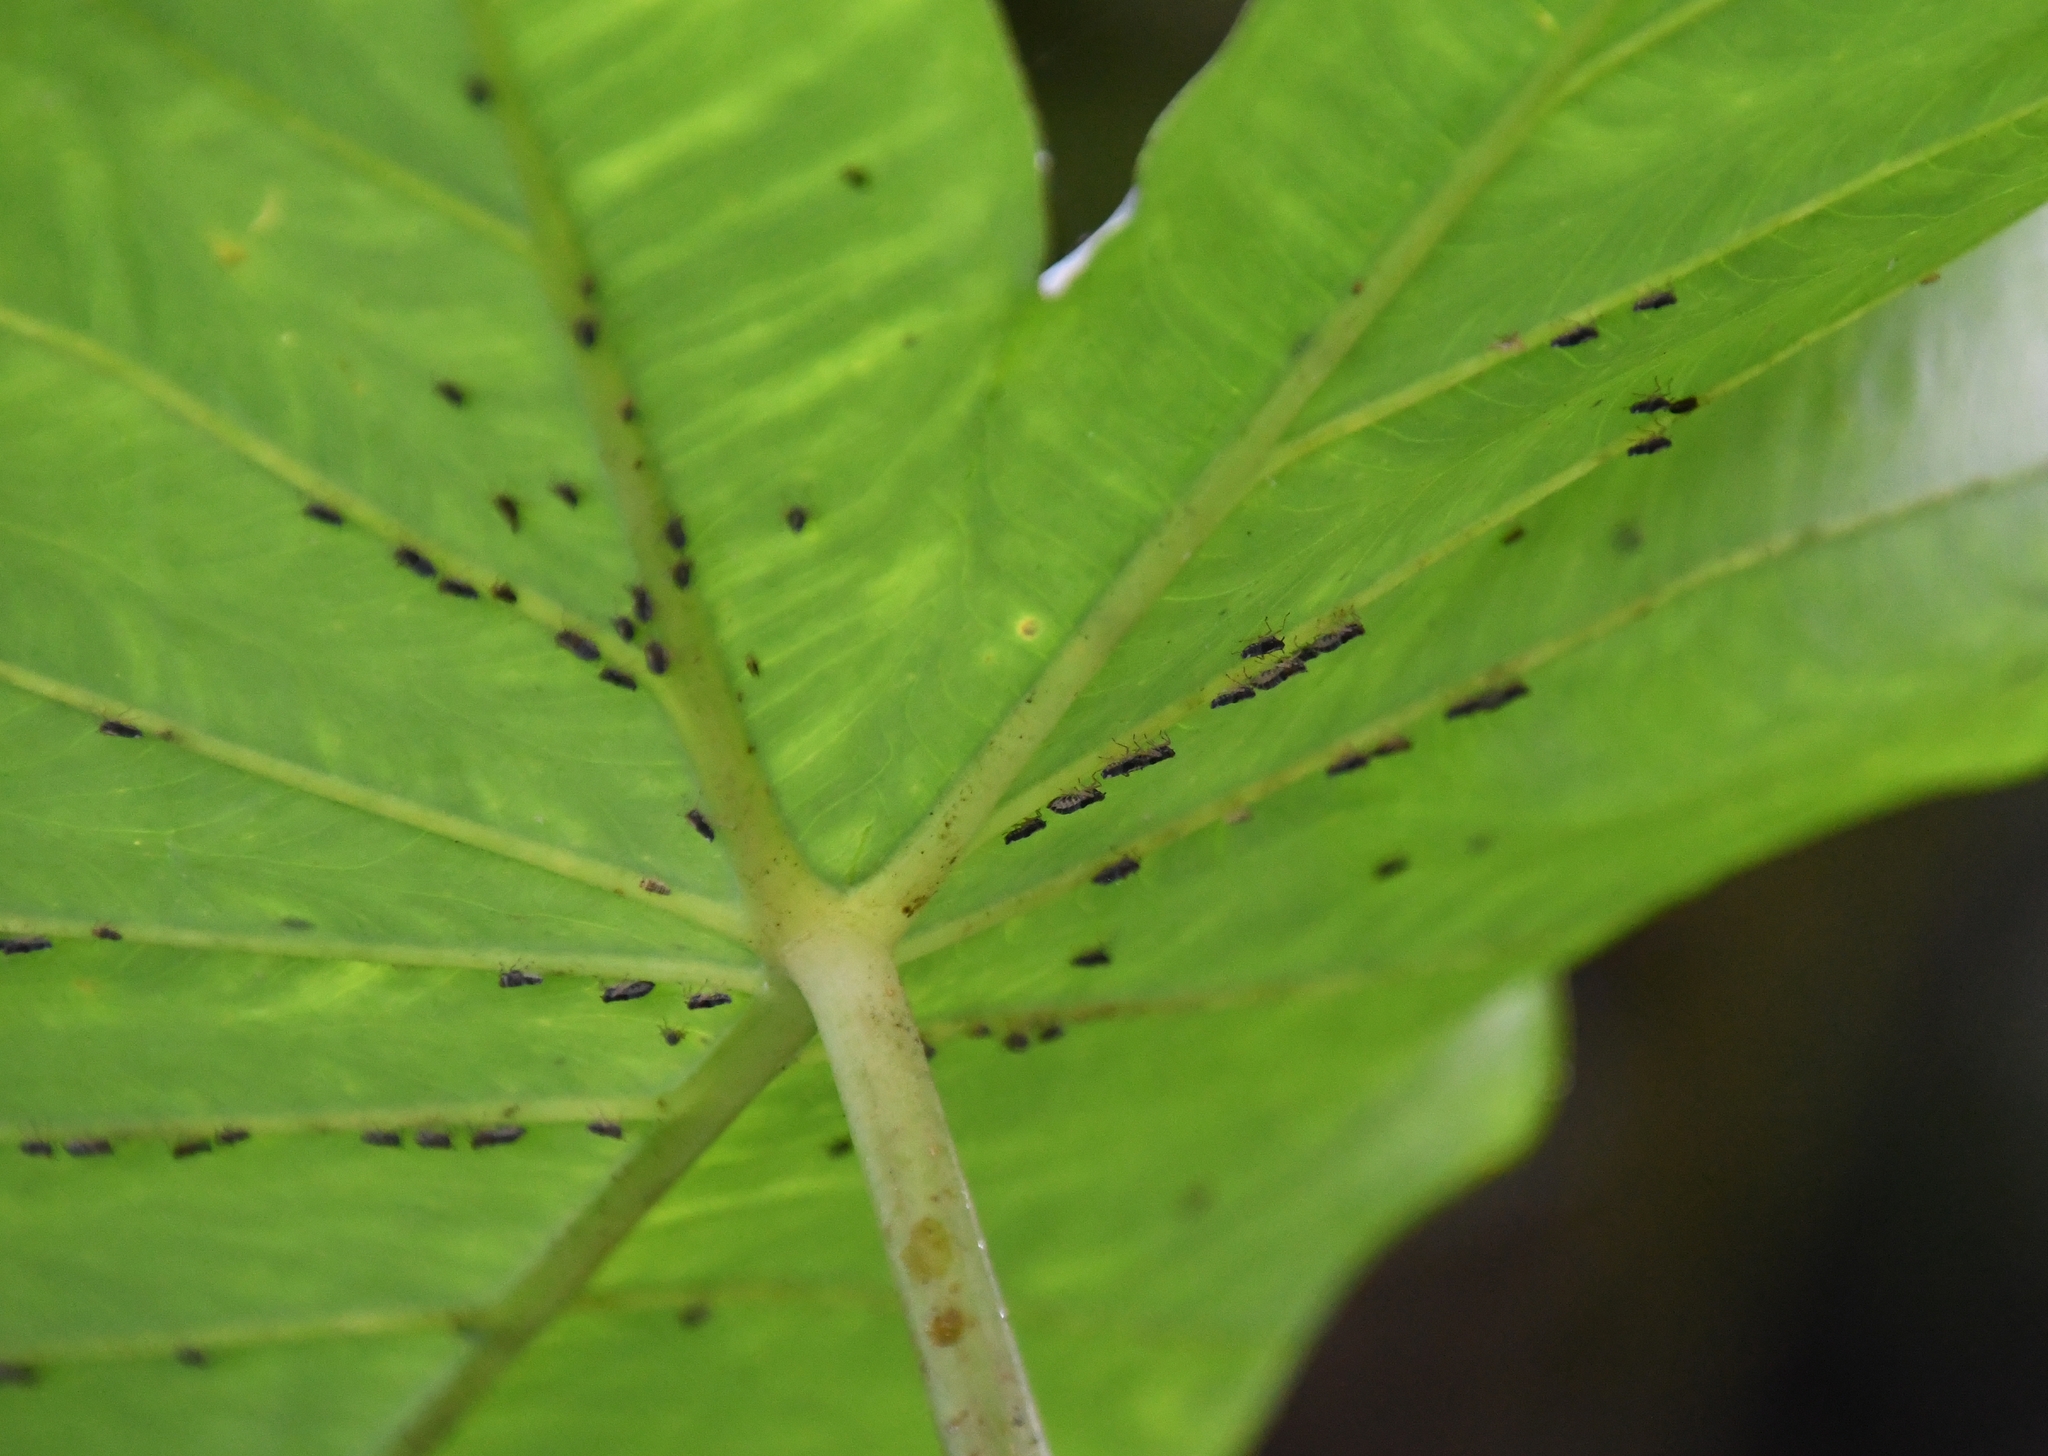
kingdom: Animalia
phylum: Arthropoda
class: Insecta
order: Hemiptera
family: Delphacidae
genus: Tarophagus
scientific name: Tarophagus colocasiae
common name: Taro planthopper
